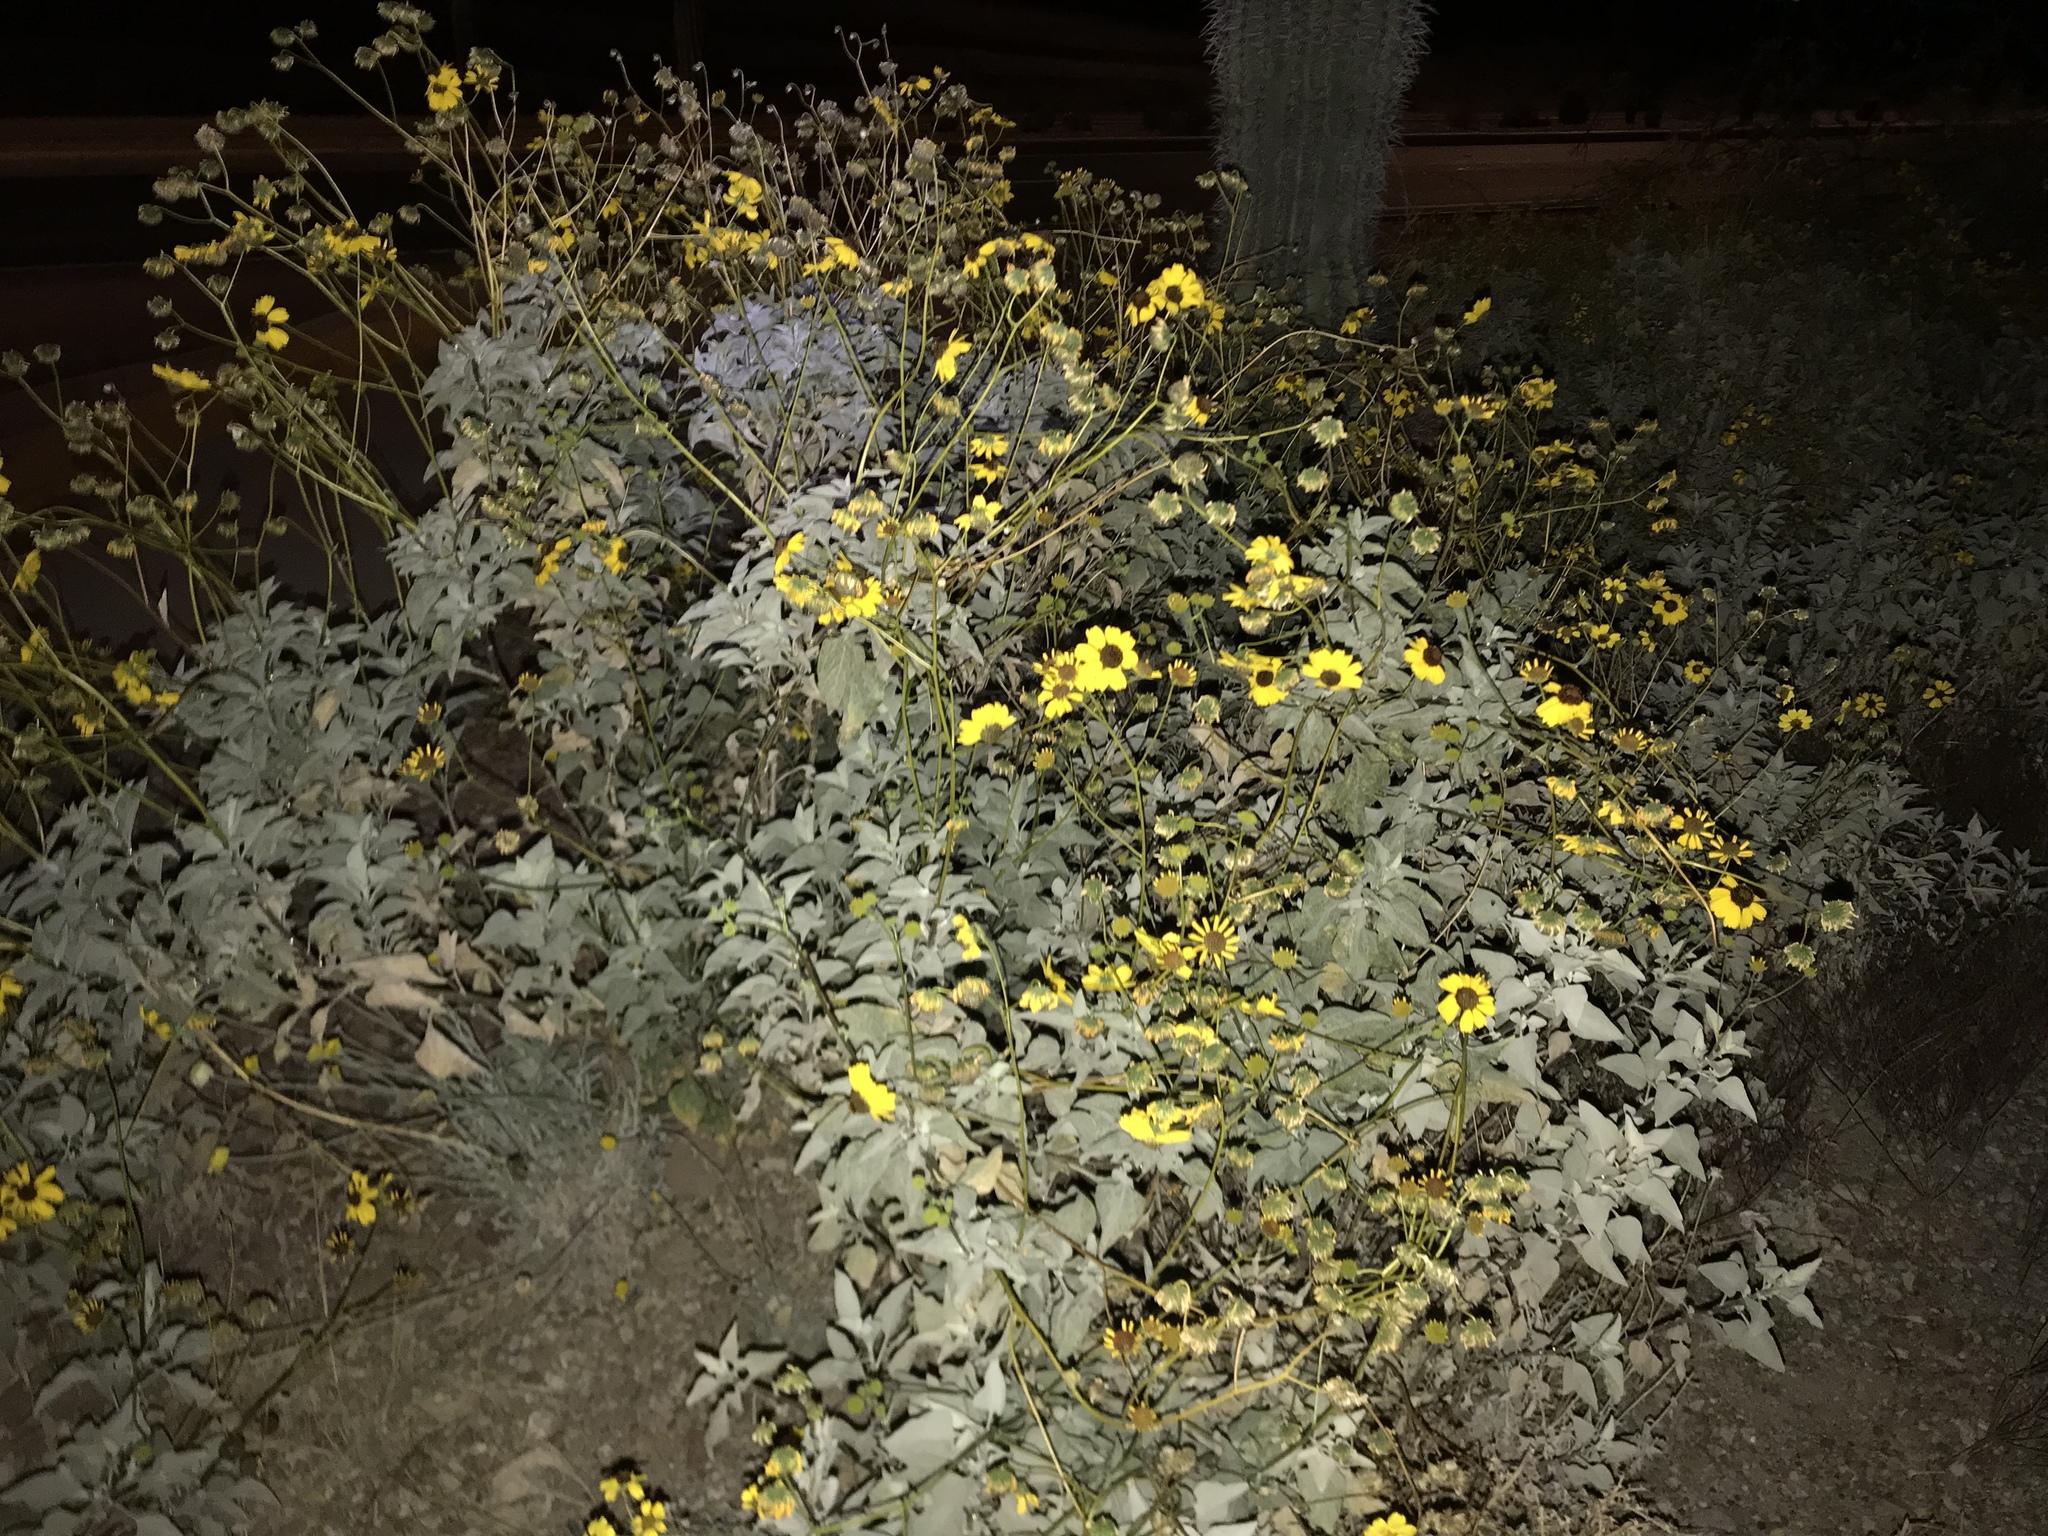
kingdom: Plantae
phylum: Tracheophyta
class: Magnoliopsida
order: Asterales
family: Asteraceae
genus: Encelia
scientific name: Encelia farinosa
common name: Brittlebush
